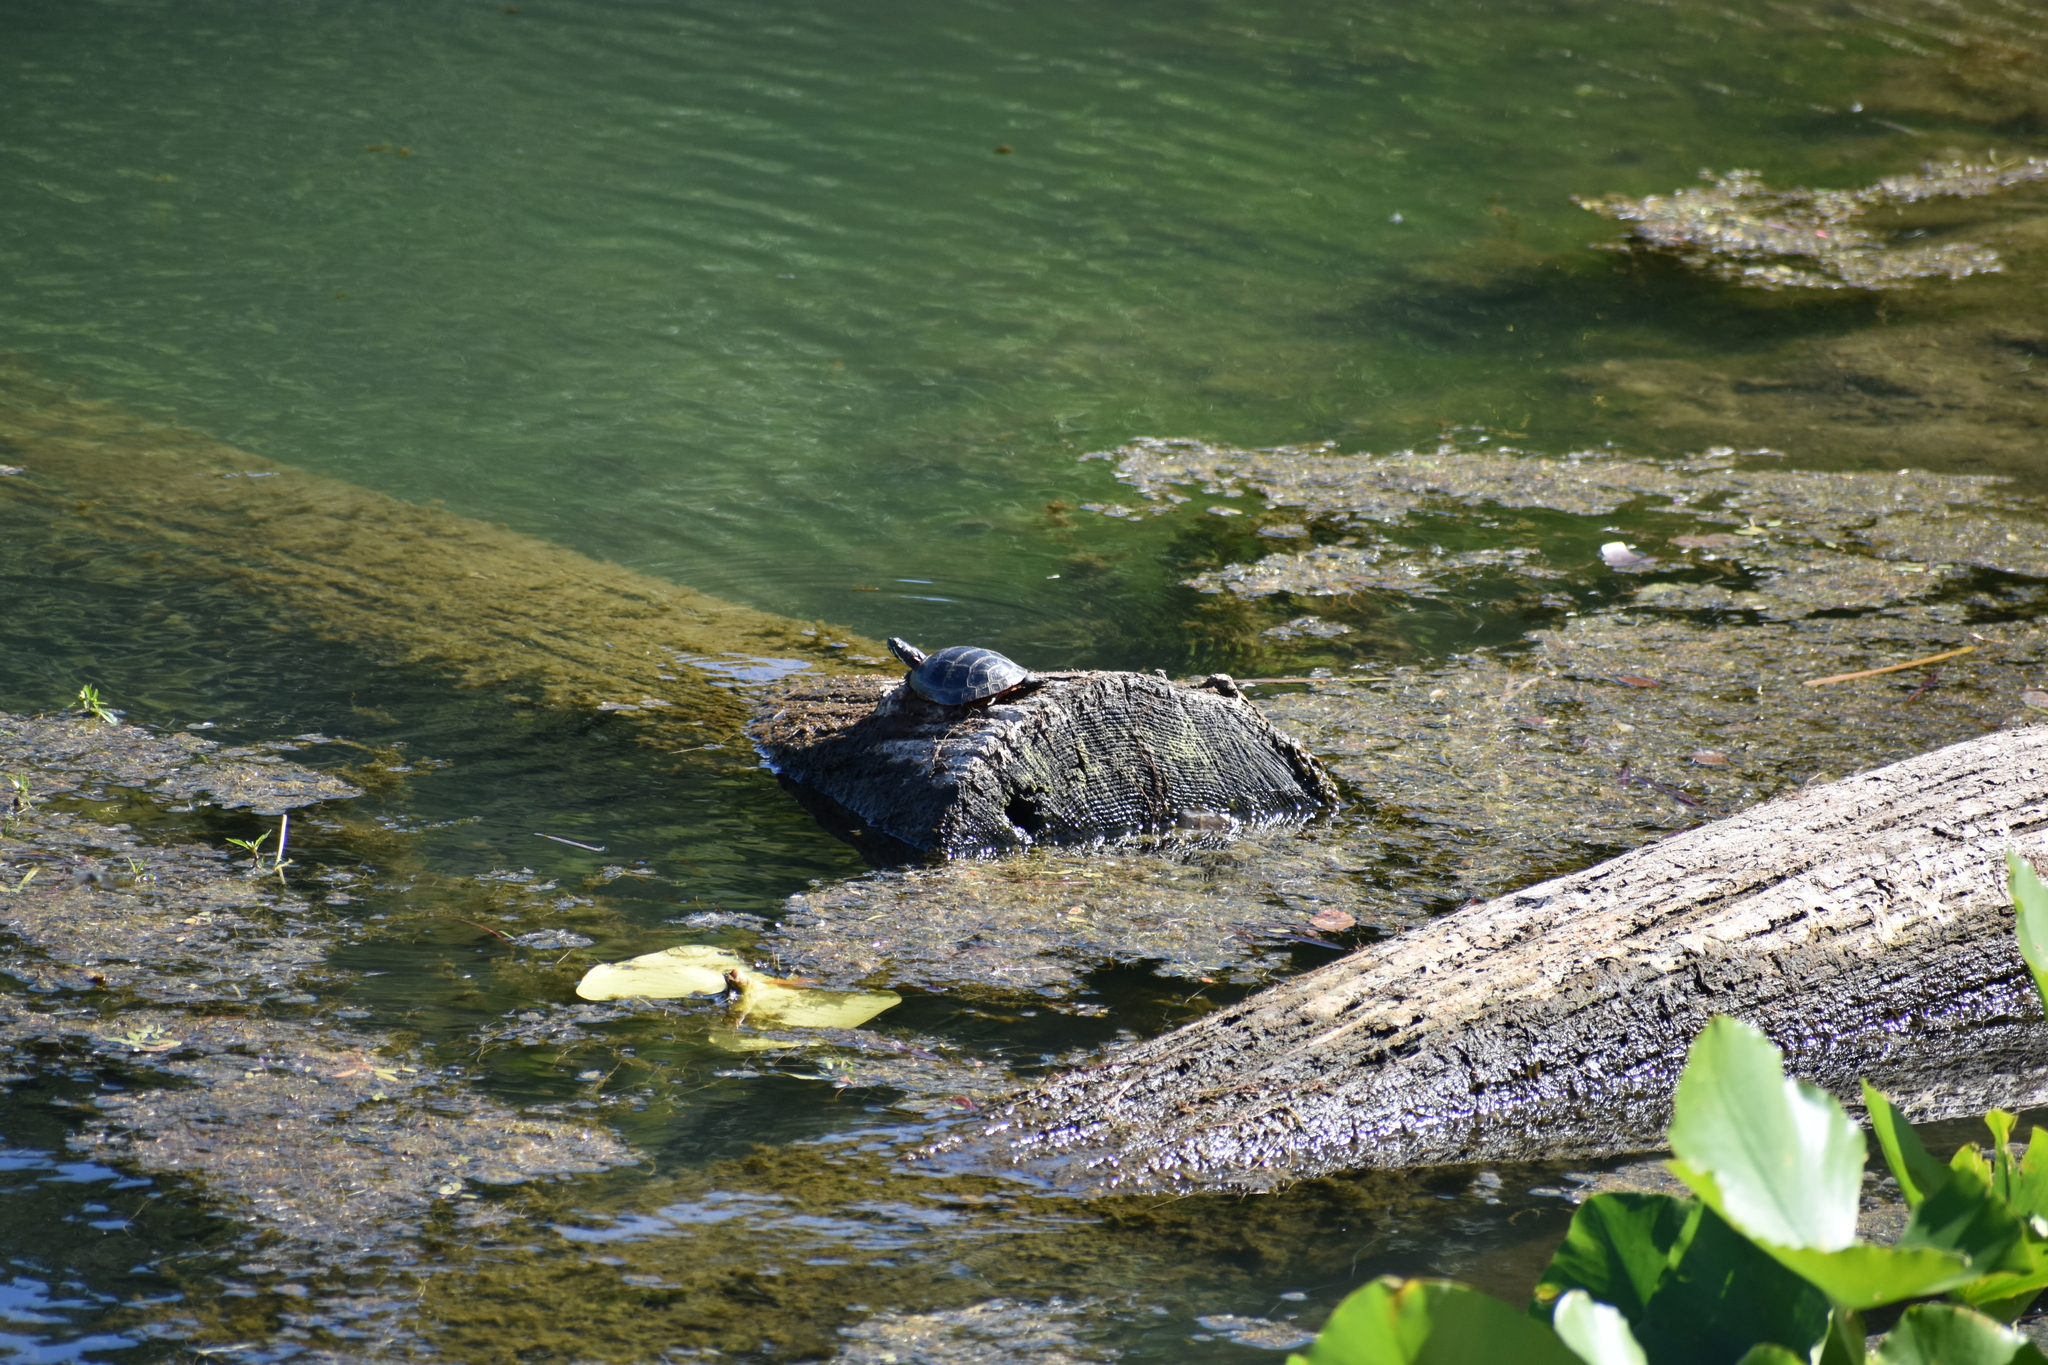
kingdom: Animalia
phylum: Chordata
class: Testudines
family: Emydidae
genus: Chrysemys
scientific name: Chrysemys picta
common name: Painted turtle
